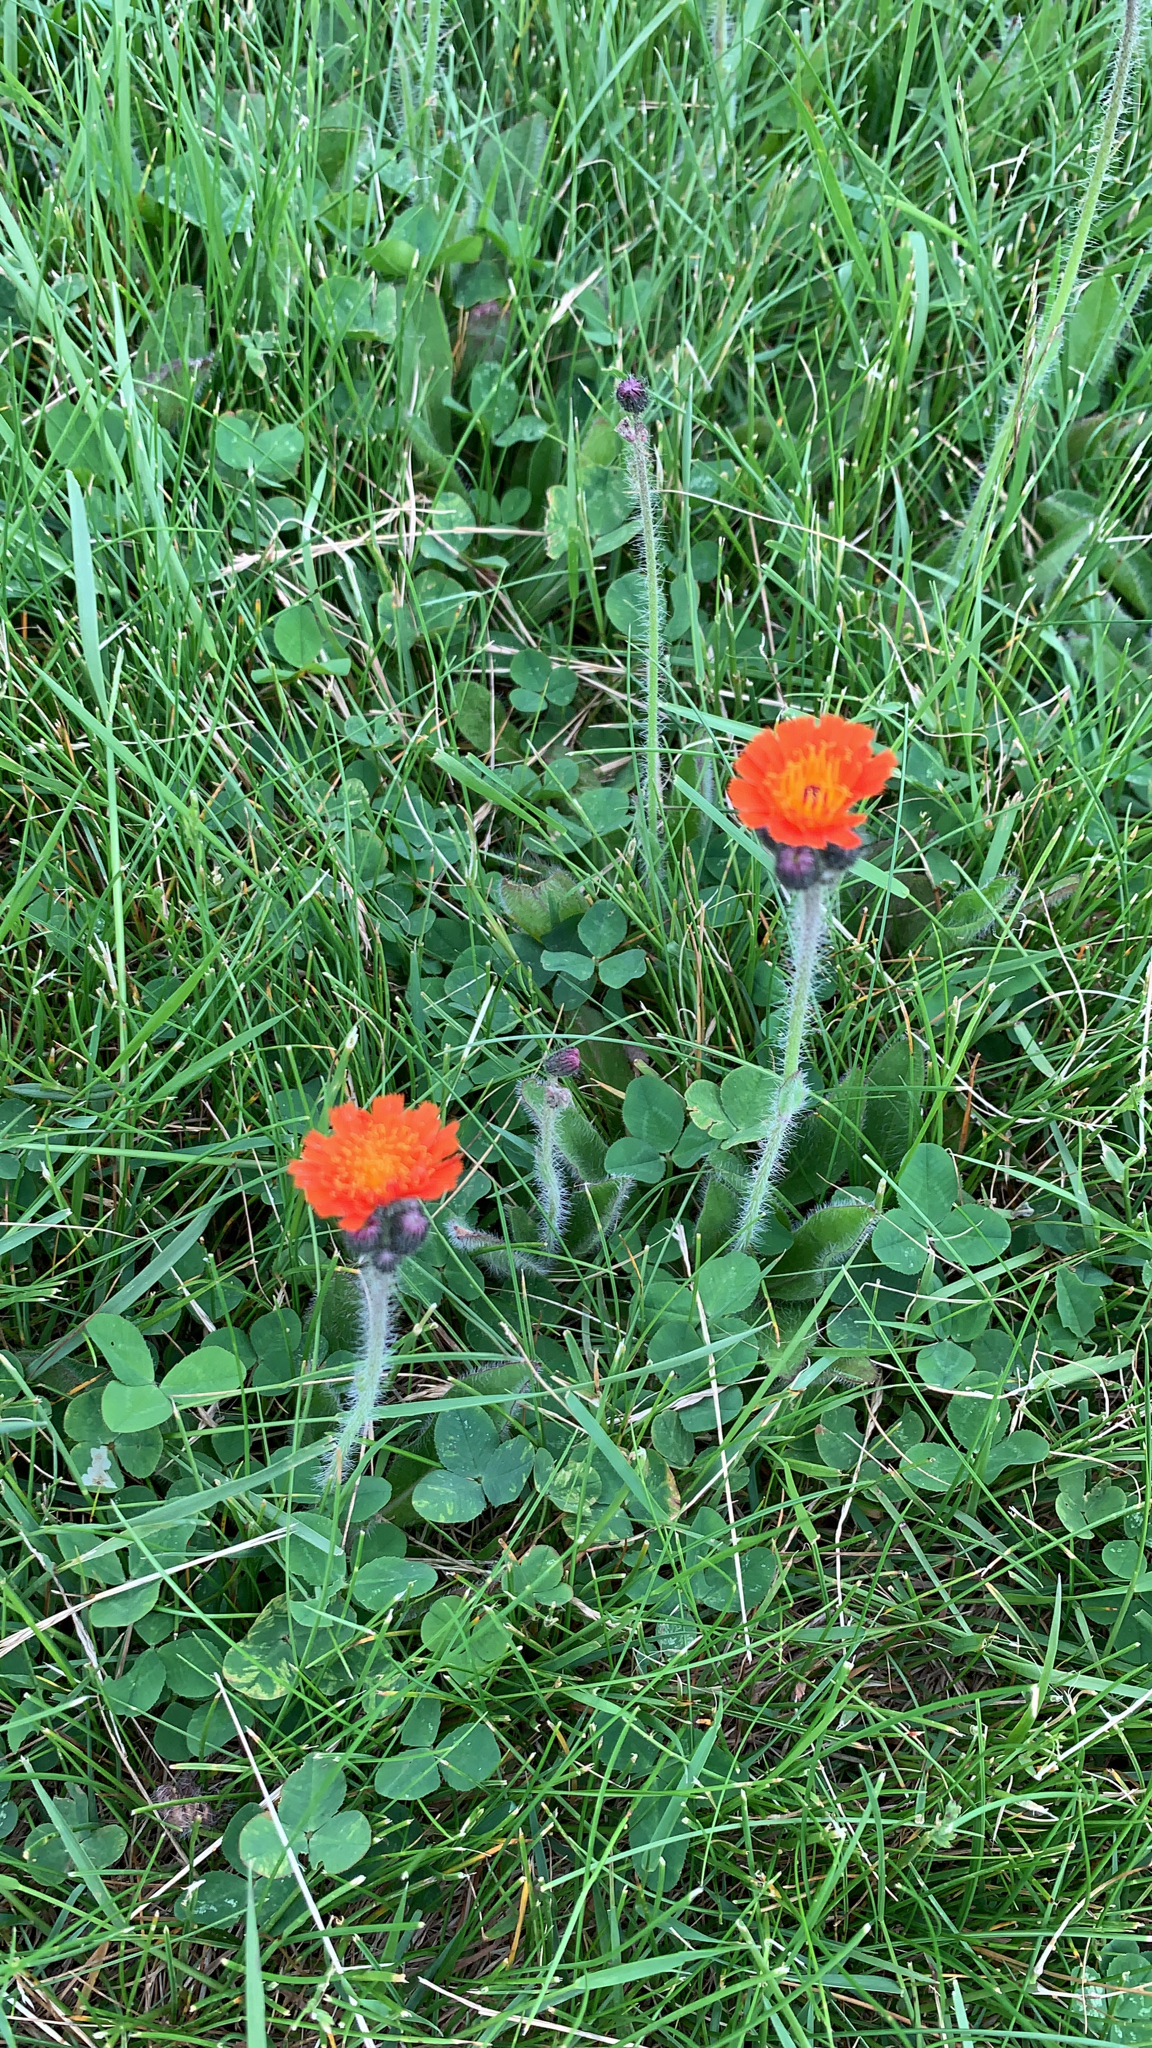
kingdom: Plantae
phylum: Tracheophyta
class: Magnoliopsida
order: Asterales
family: Asteraceae
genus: Pilosella
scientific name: Pilosella aurantiaca
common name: Fox-and-cubs
